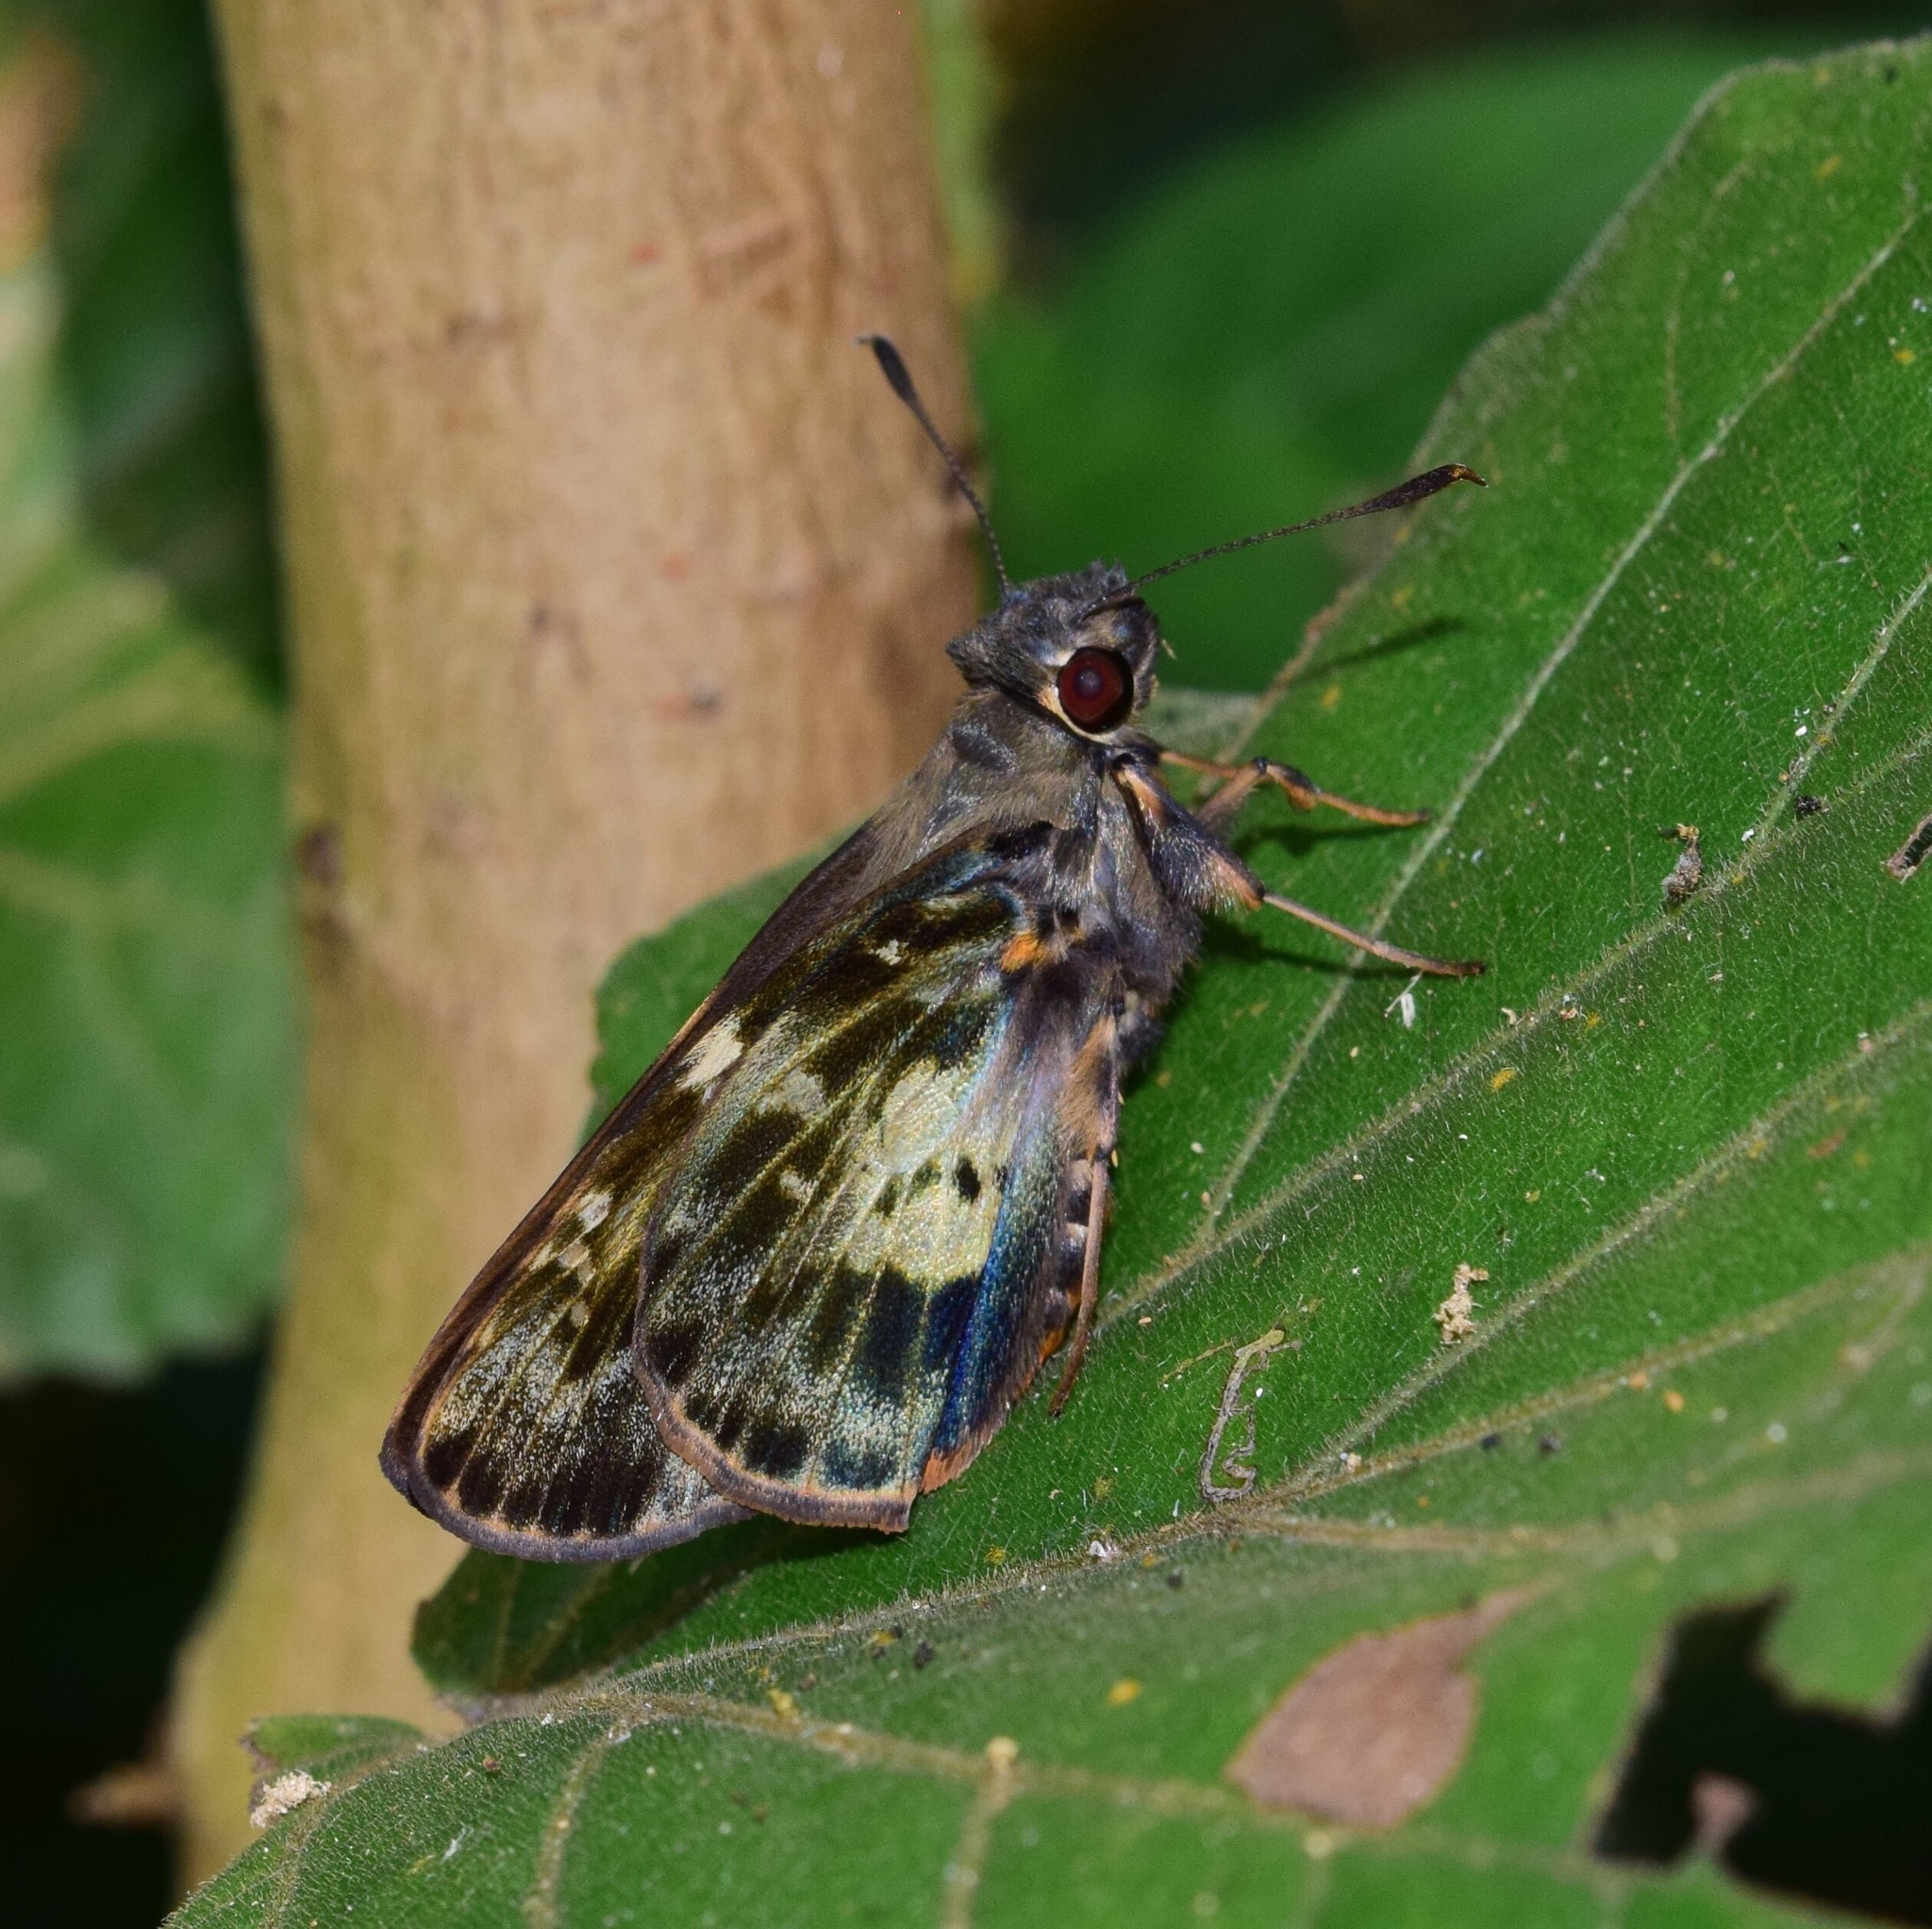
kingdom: Animalia
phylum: Arthropoda
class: Insecta
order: Lepidoptera
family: Hesperiidae
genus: Artitropa
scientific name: Artitropa erinnys
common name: Bush nightfighter
